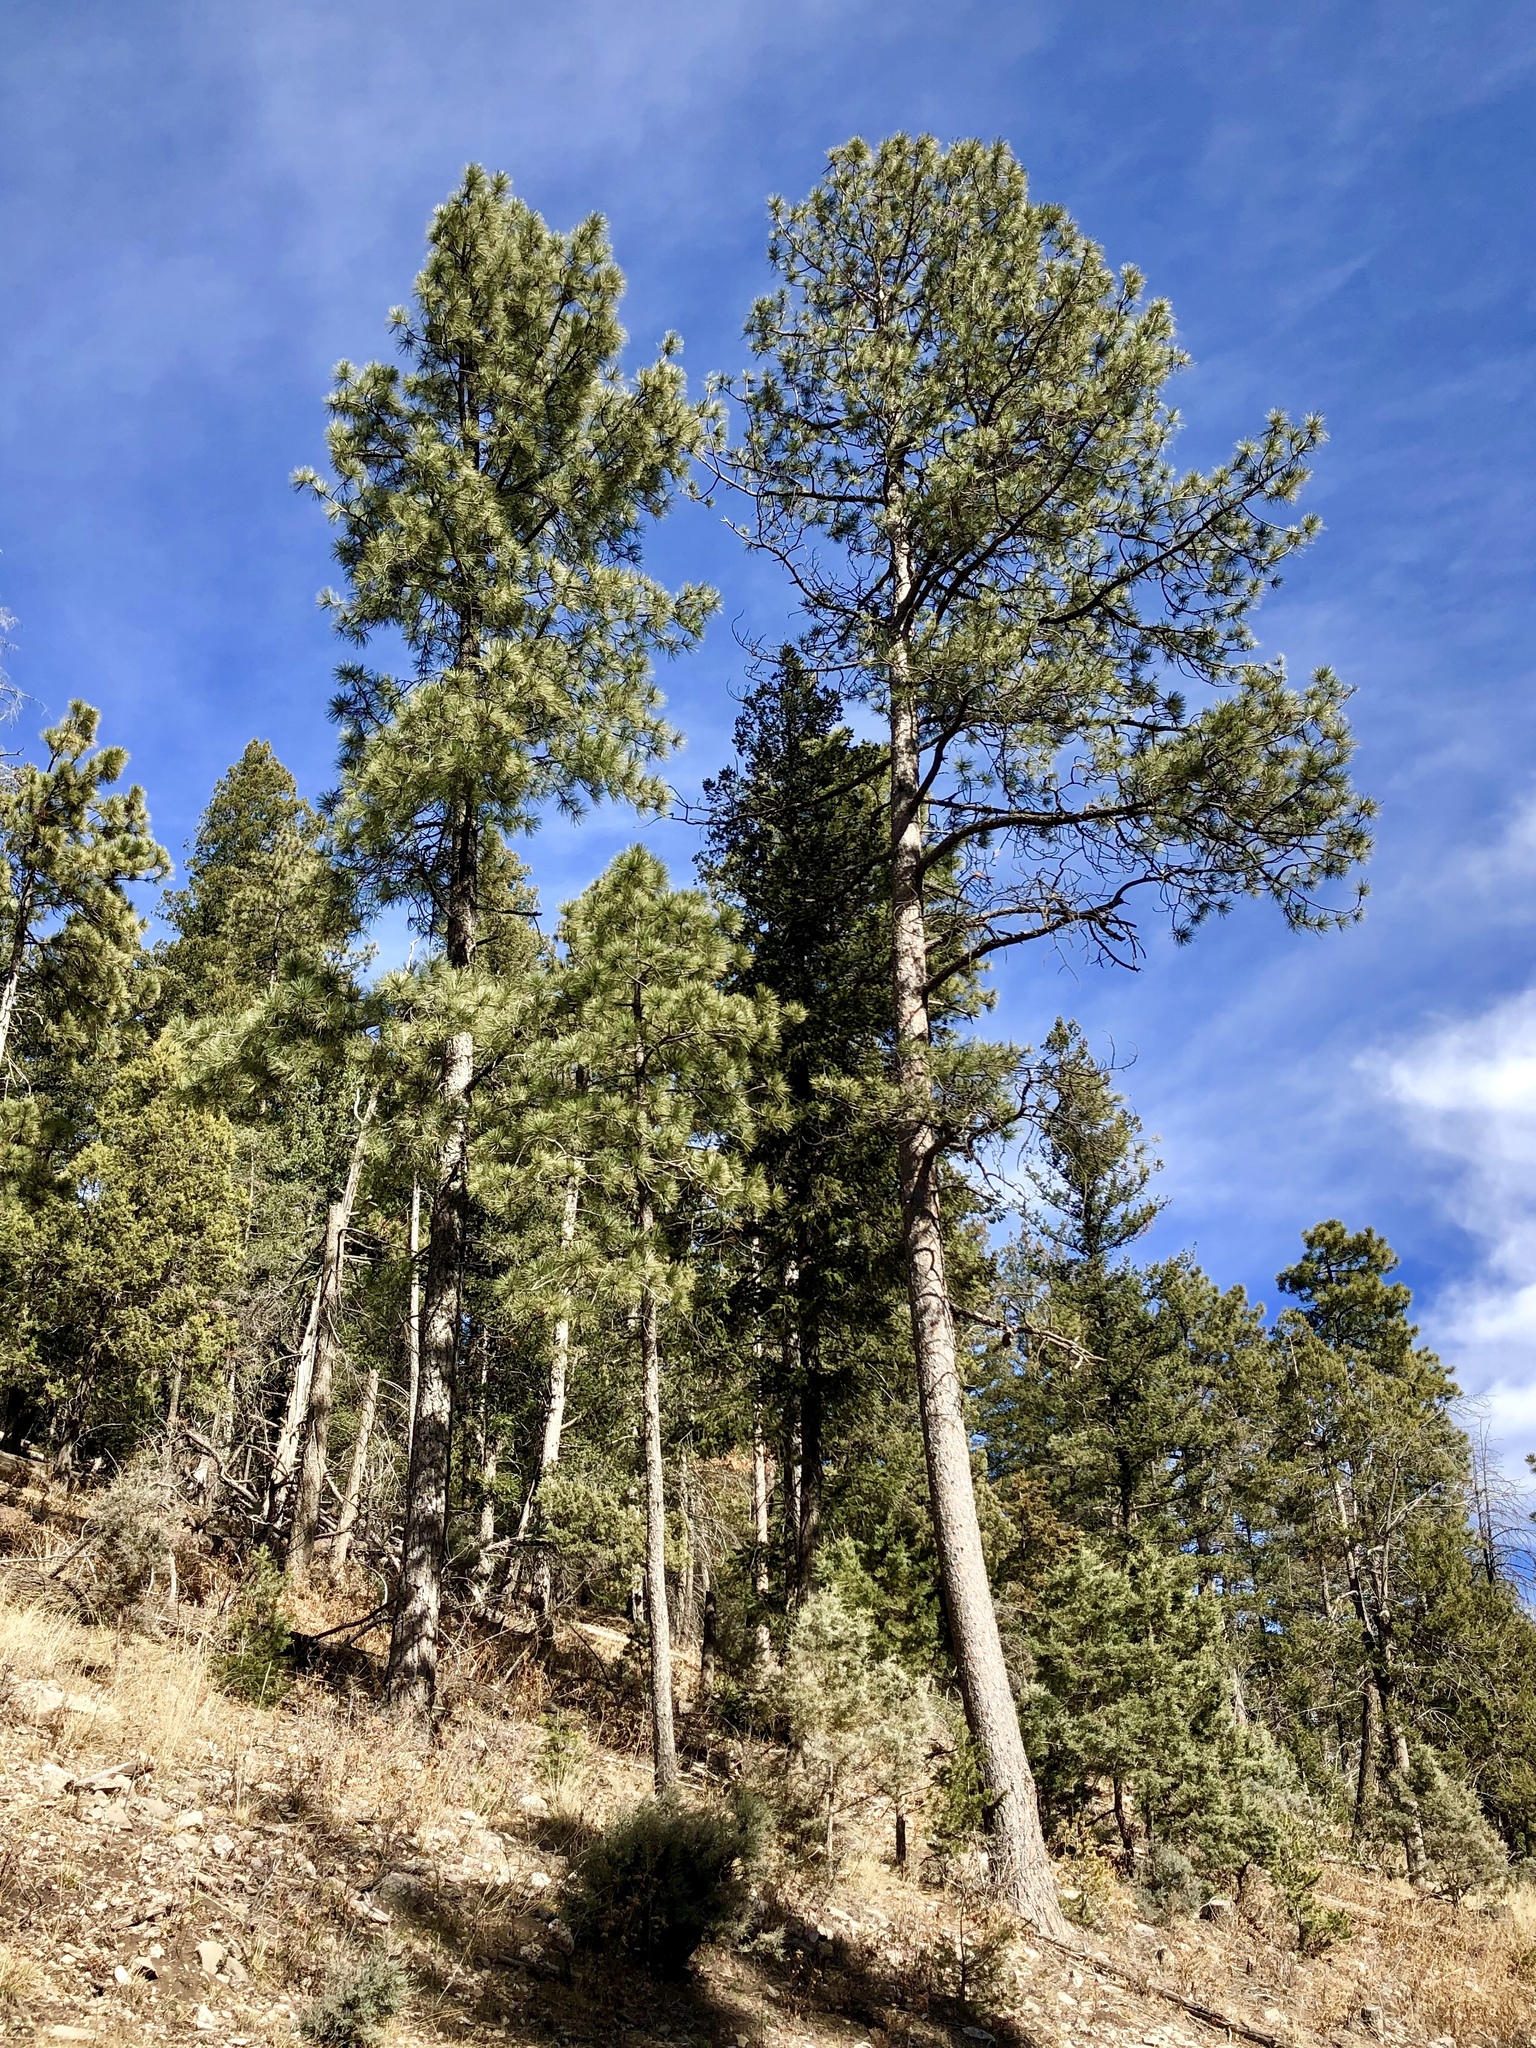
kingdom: Plantae
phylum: Tracheophyta
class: Pinopsida
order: Pinales
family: Pinaceae
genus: Pinus
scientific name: Pinus ponderosa
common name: Western yellow-pine
